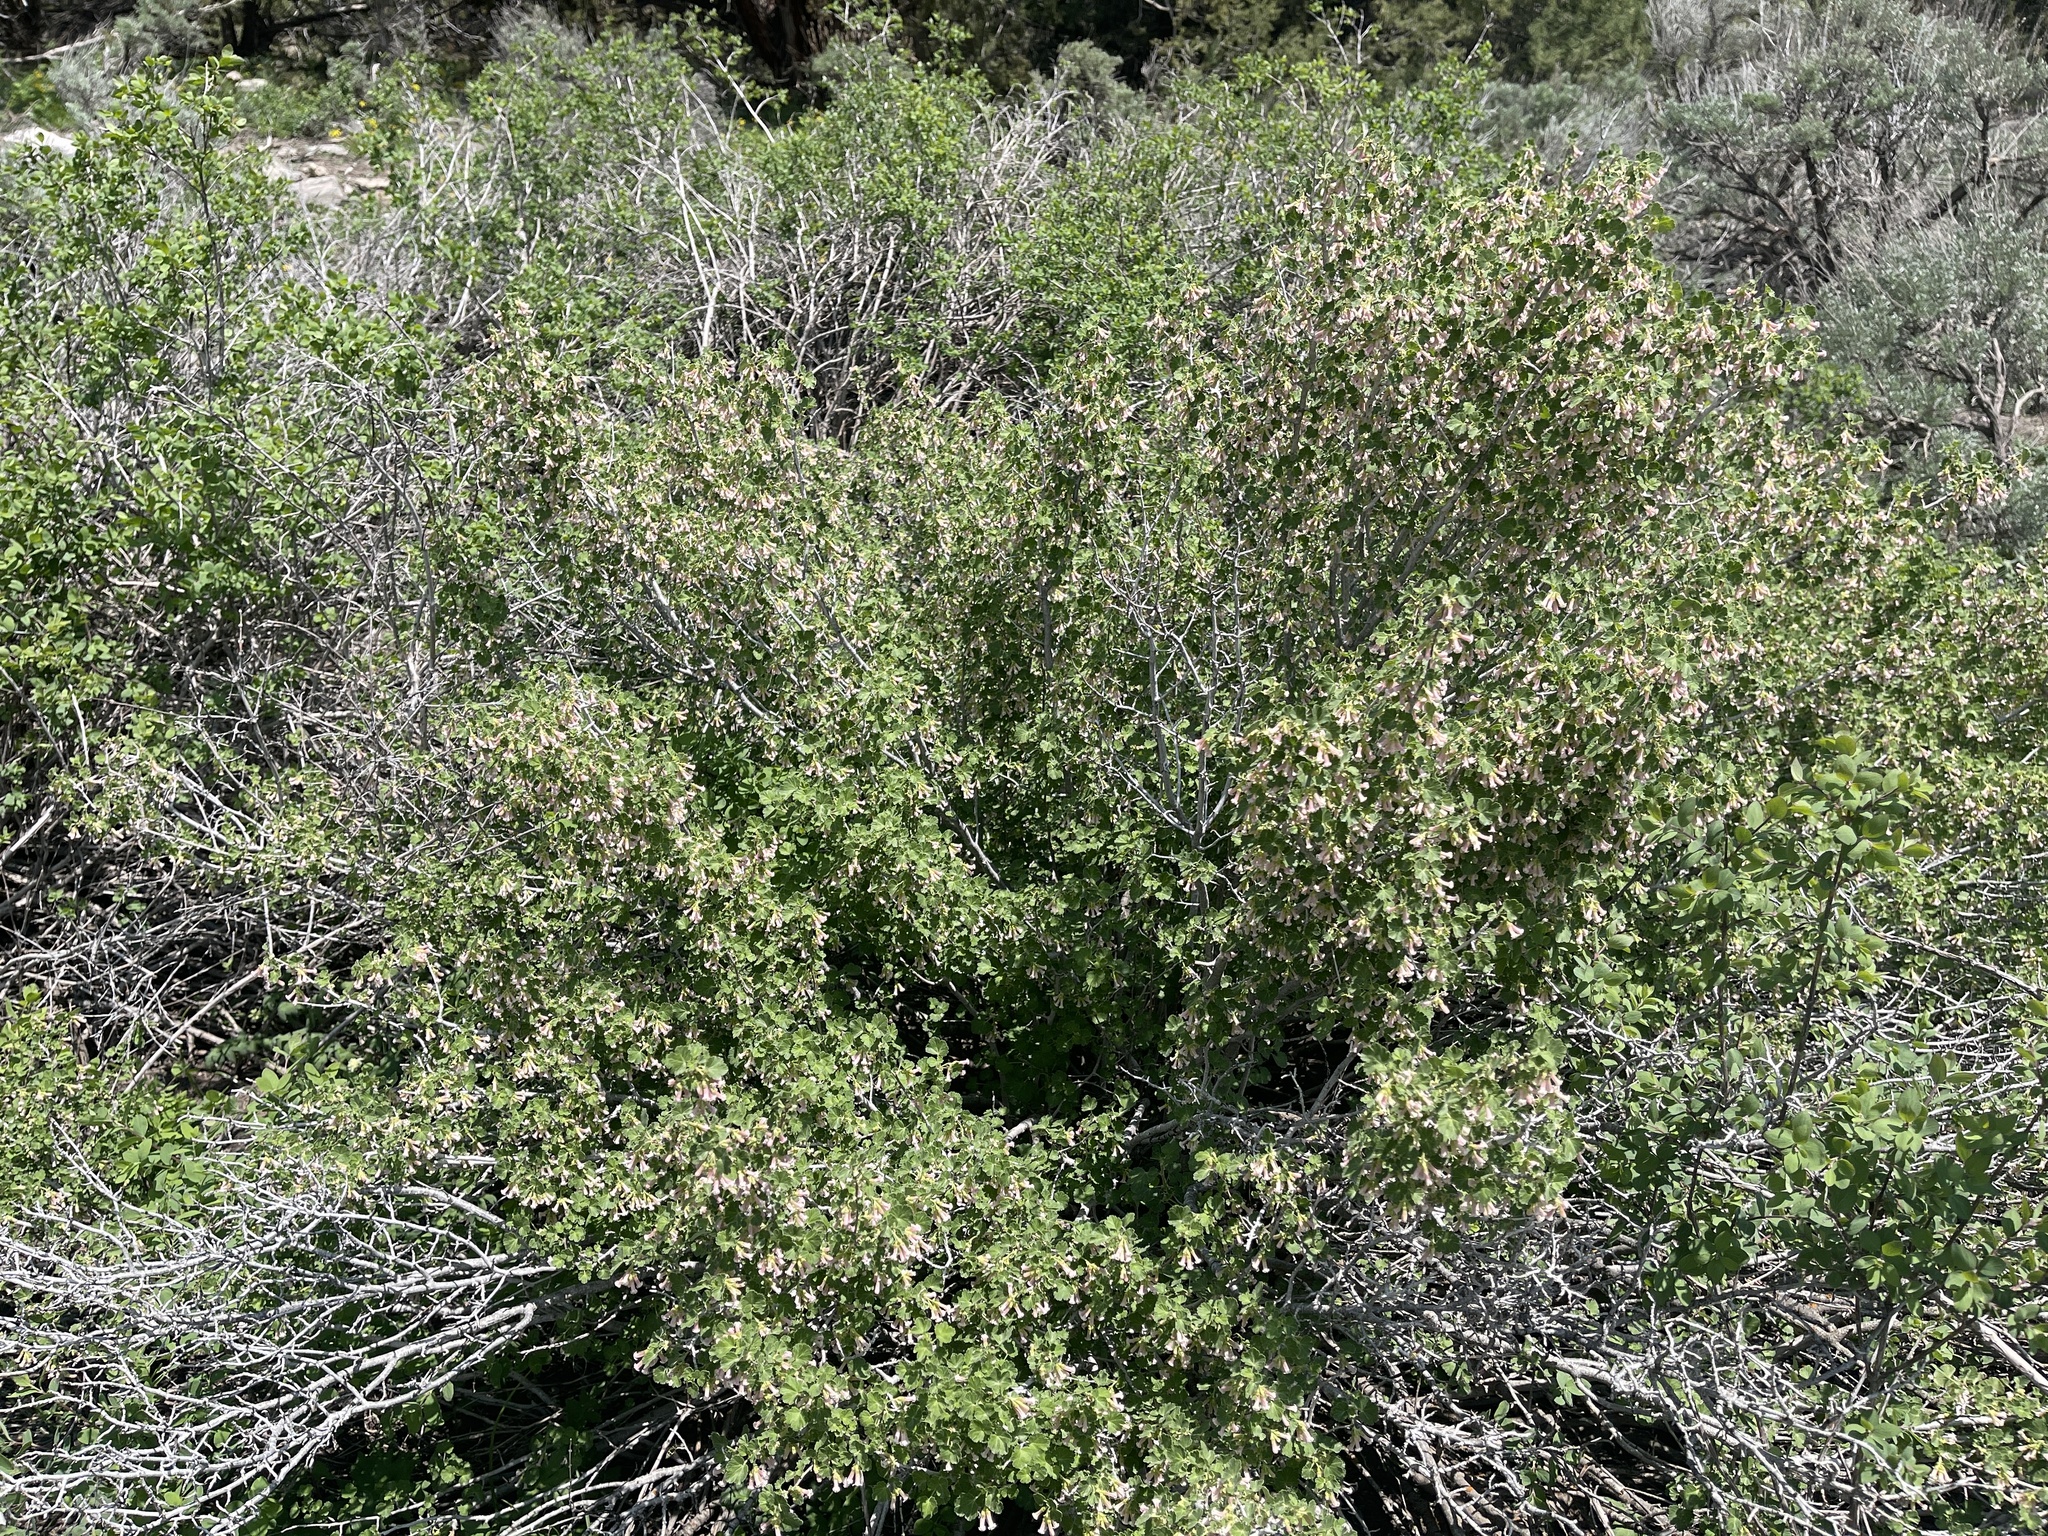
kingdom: Plantae
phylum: Tracheophyta
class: Magnoliopsida
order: Saxifragales
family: Grossulariaceae
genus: Ribes
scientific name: Ribes cereum
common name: Wax currant
